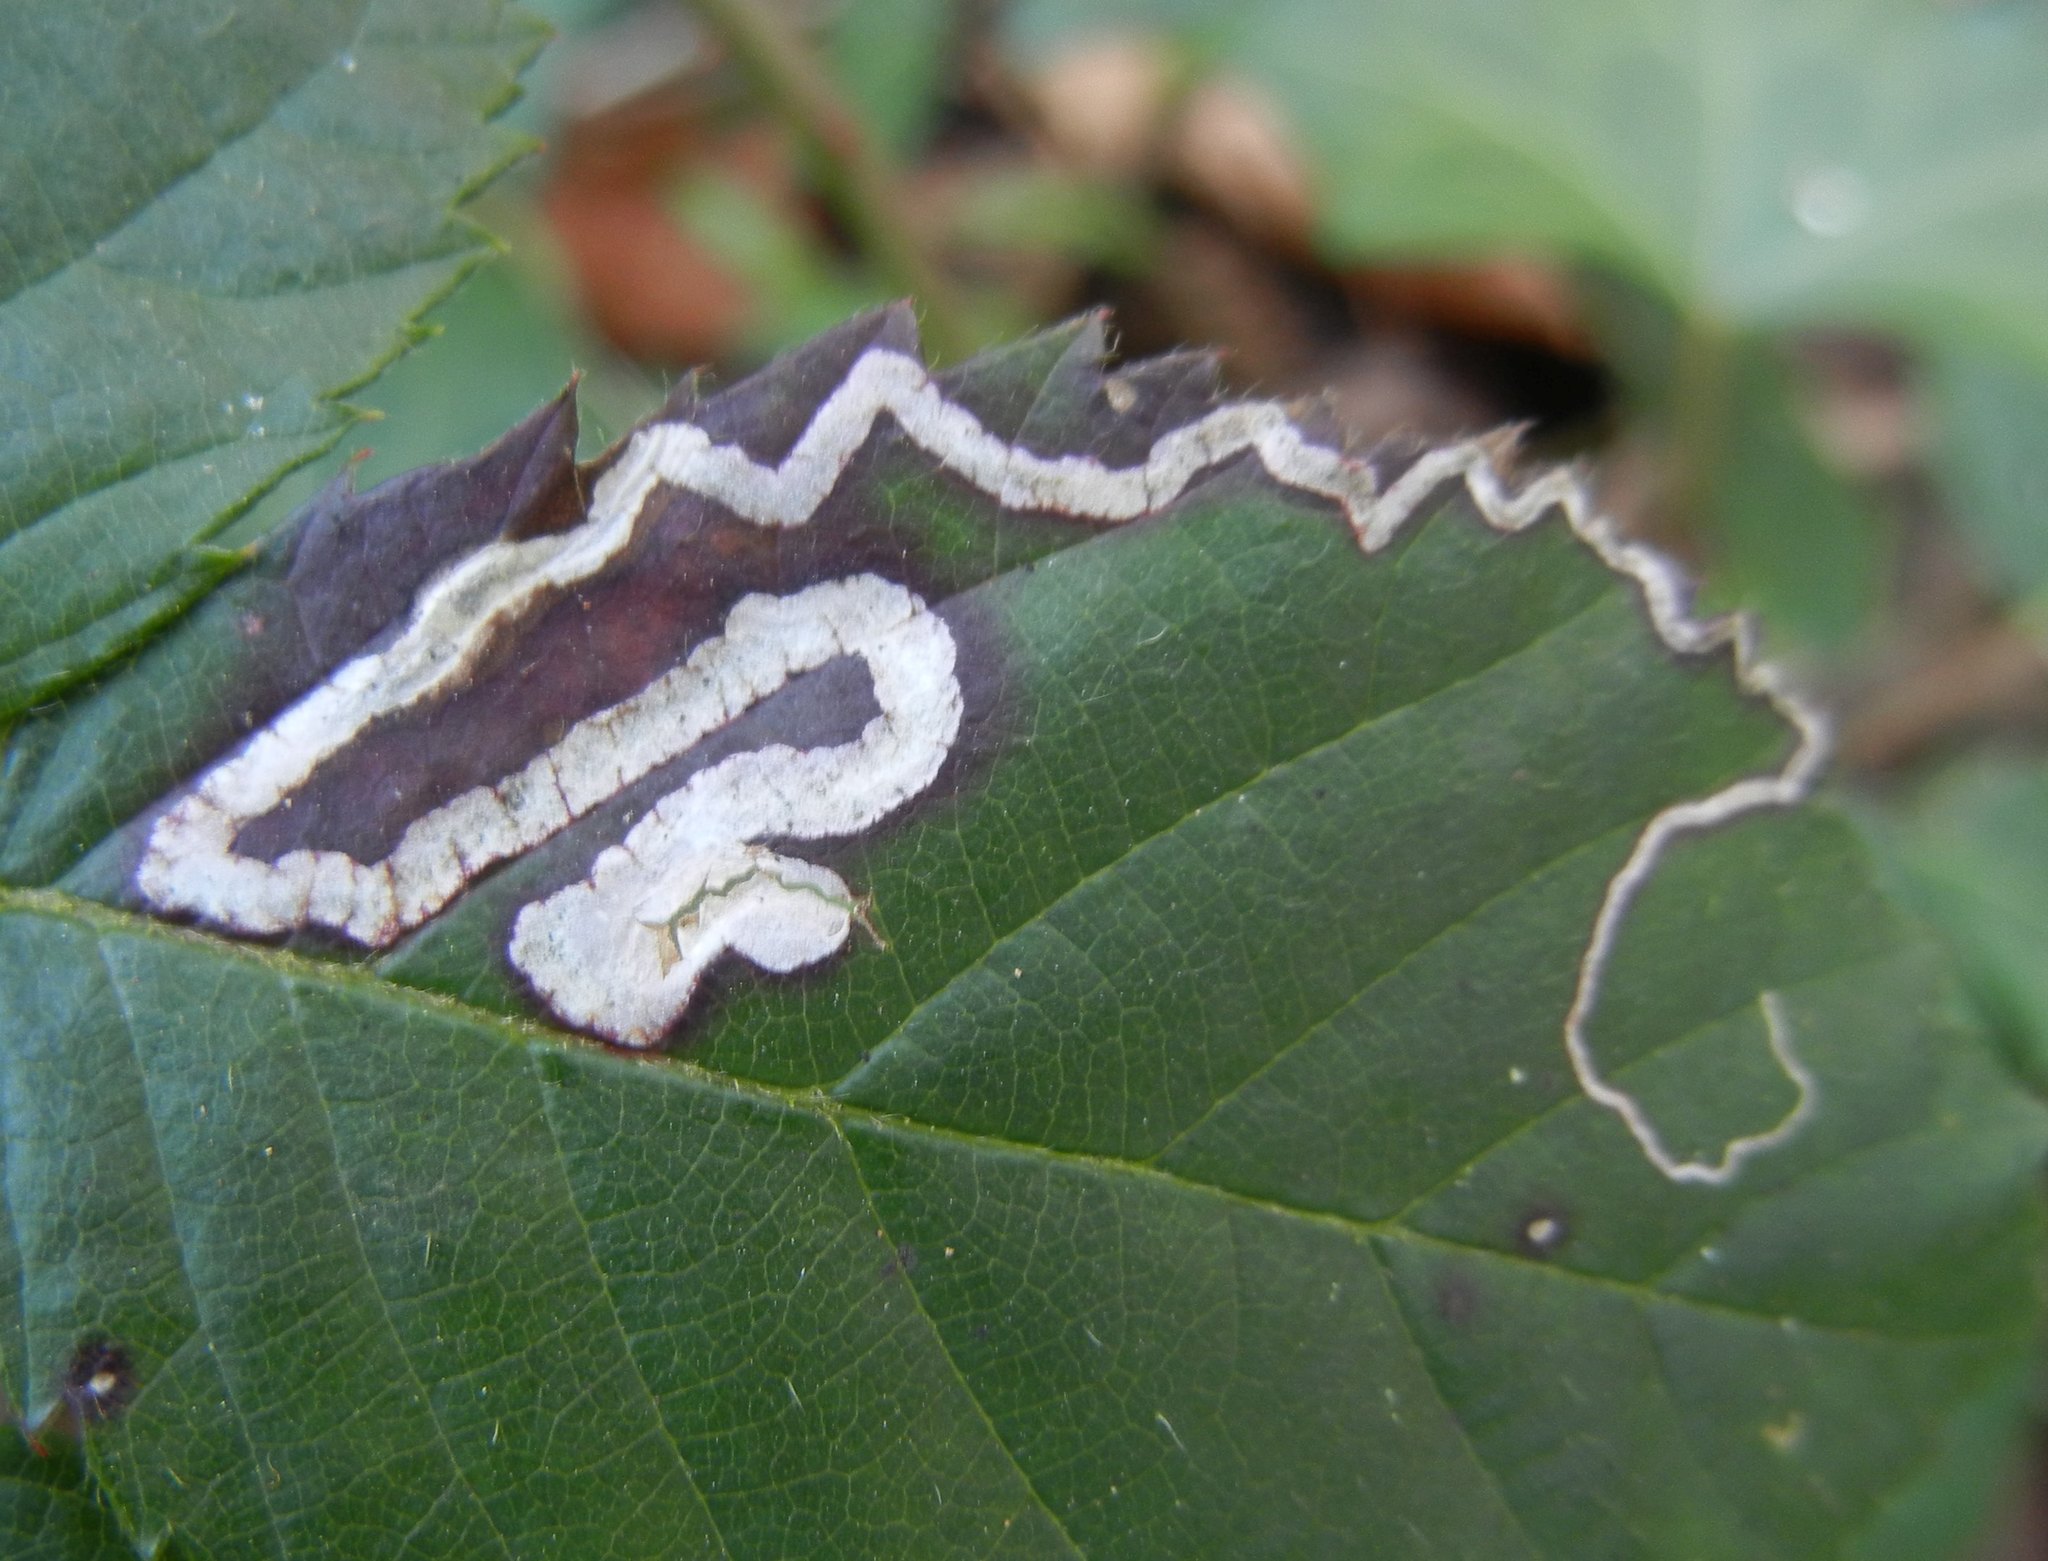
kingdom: Animalia
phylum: Arthropoda
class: Insecta
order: Lepidoptera
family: Nepticulidae
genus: Stigmella
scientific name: Stigmella aurella
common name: Golden pigmy
